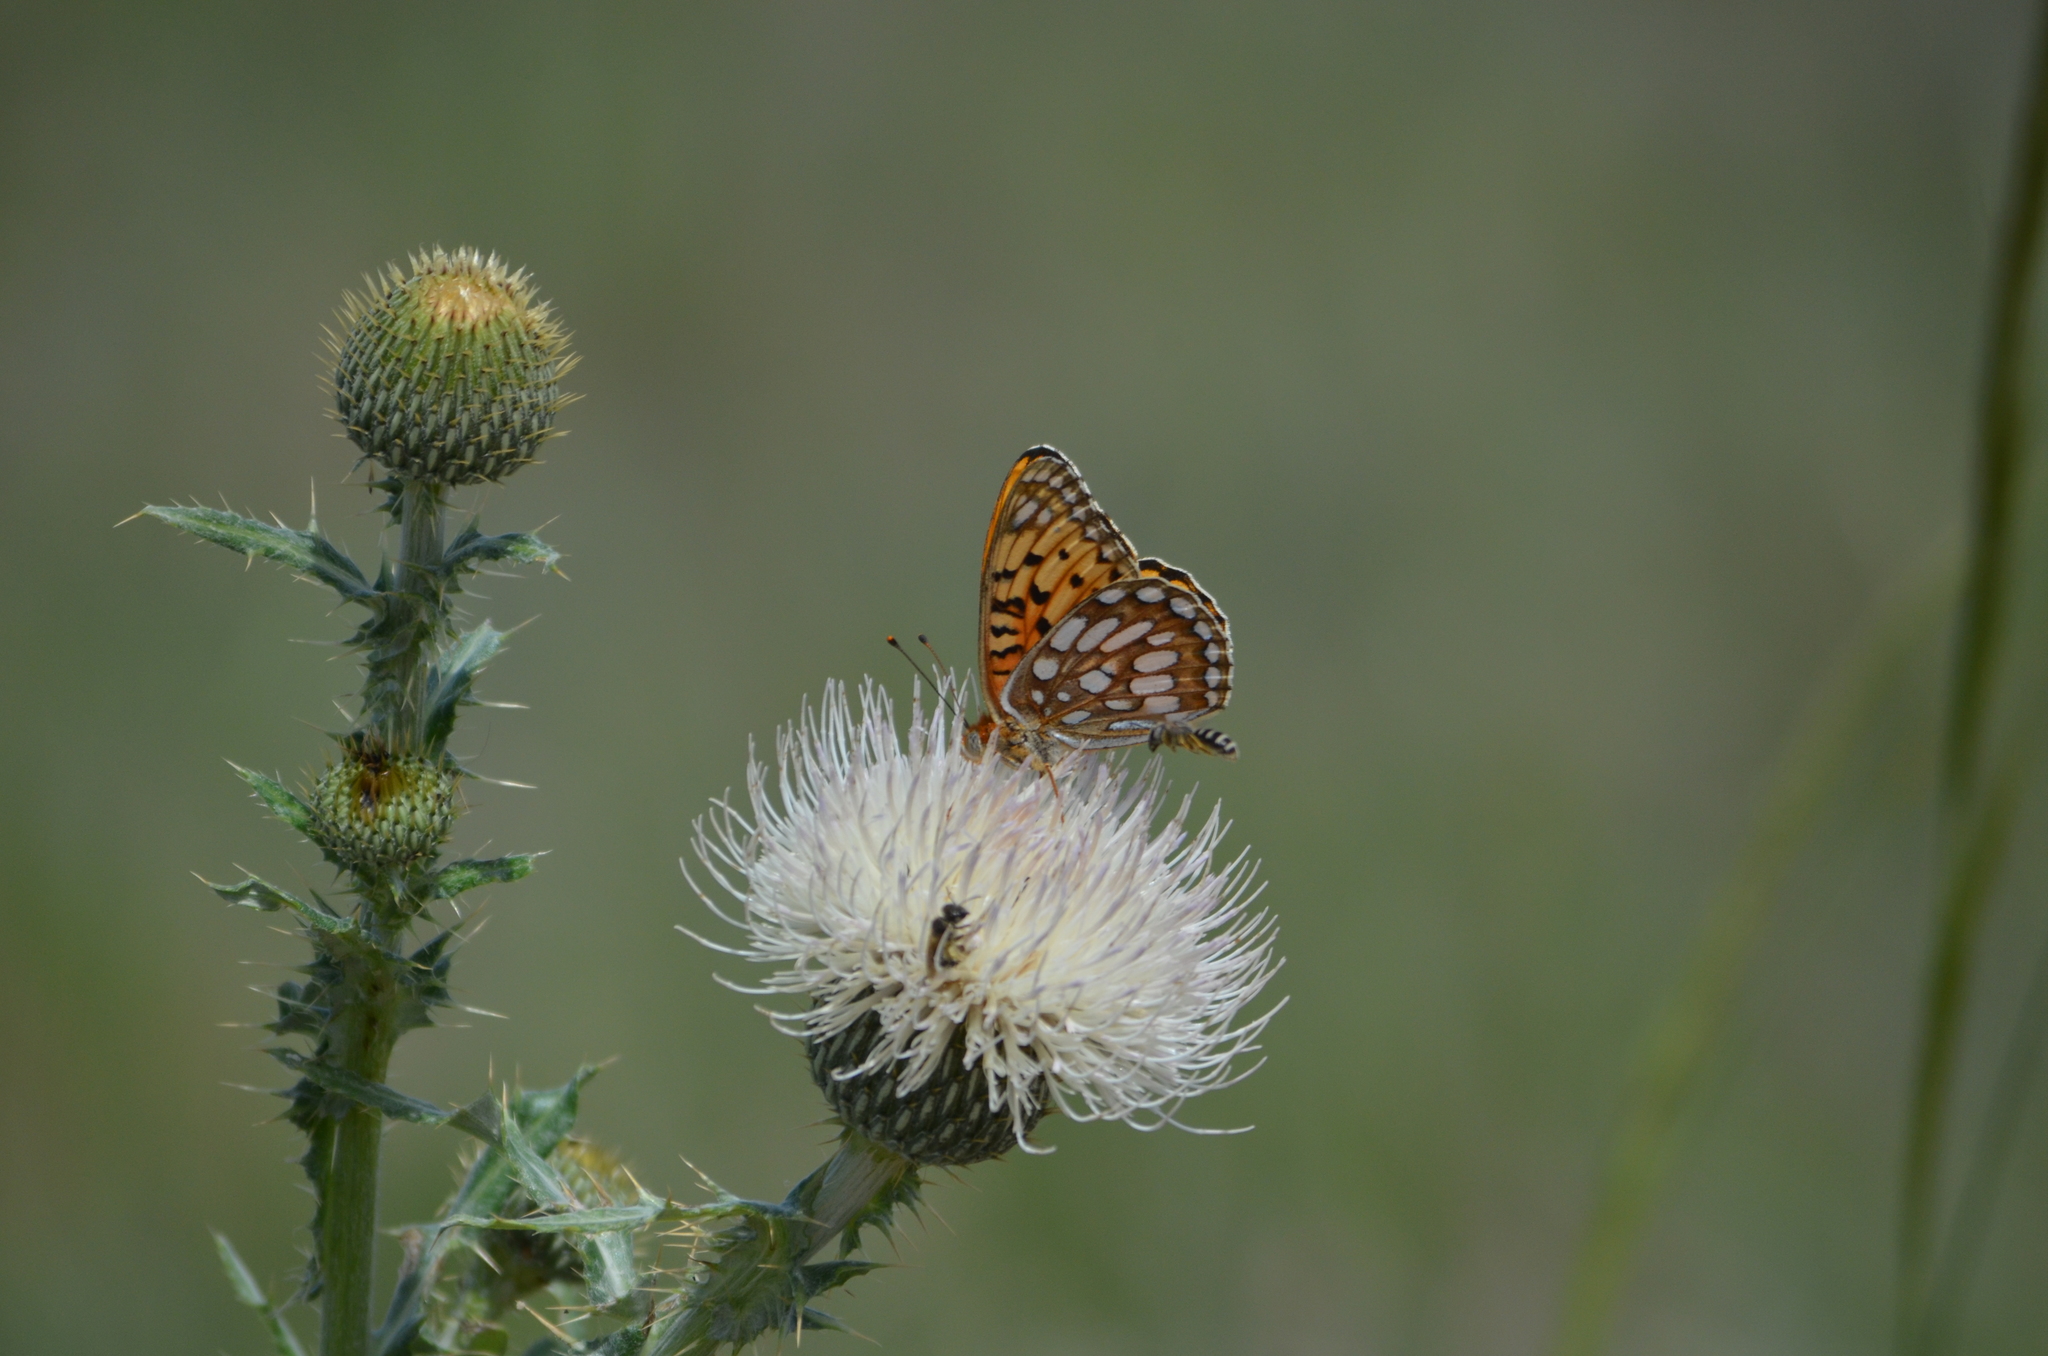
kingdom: Animalia
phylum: Arthropoda
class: Insecta
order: Lepidoptera
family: Nymphalidae
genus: Speyeria
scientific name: Speyeria edwardsii
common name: Edwards' fritillary
